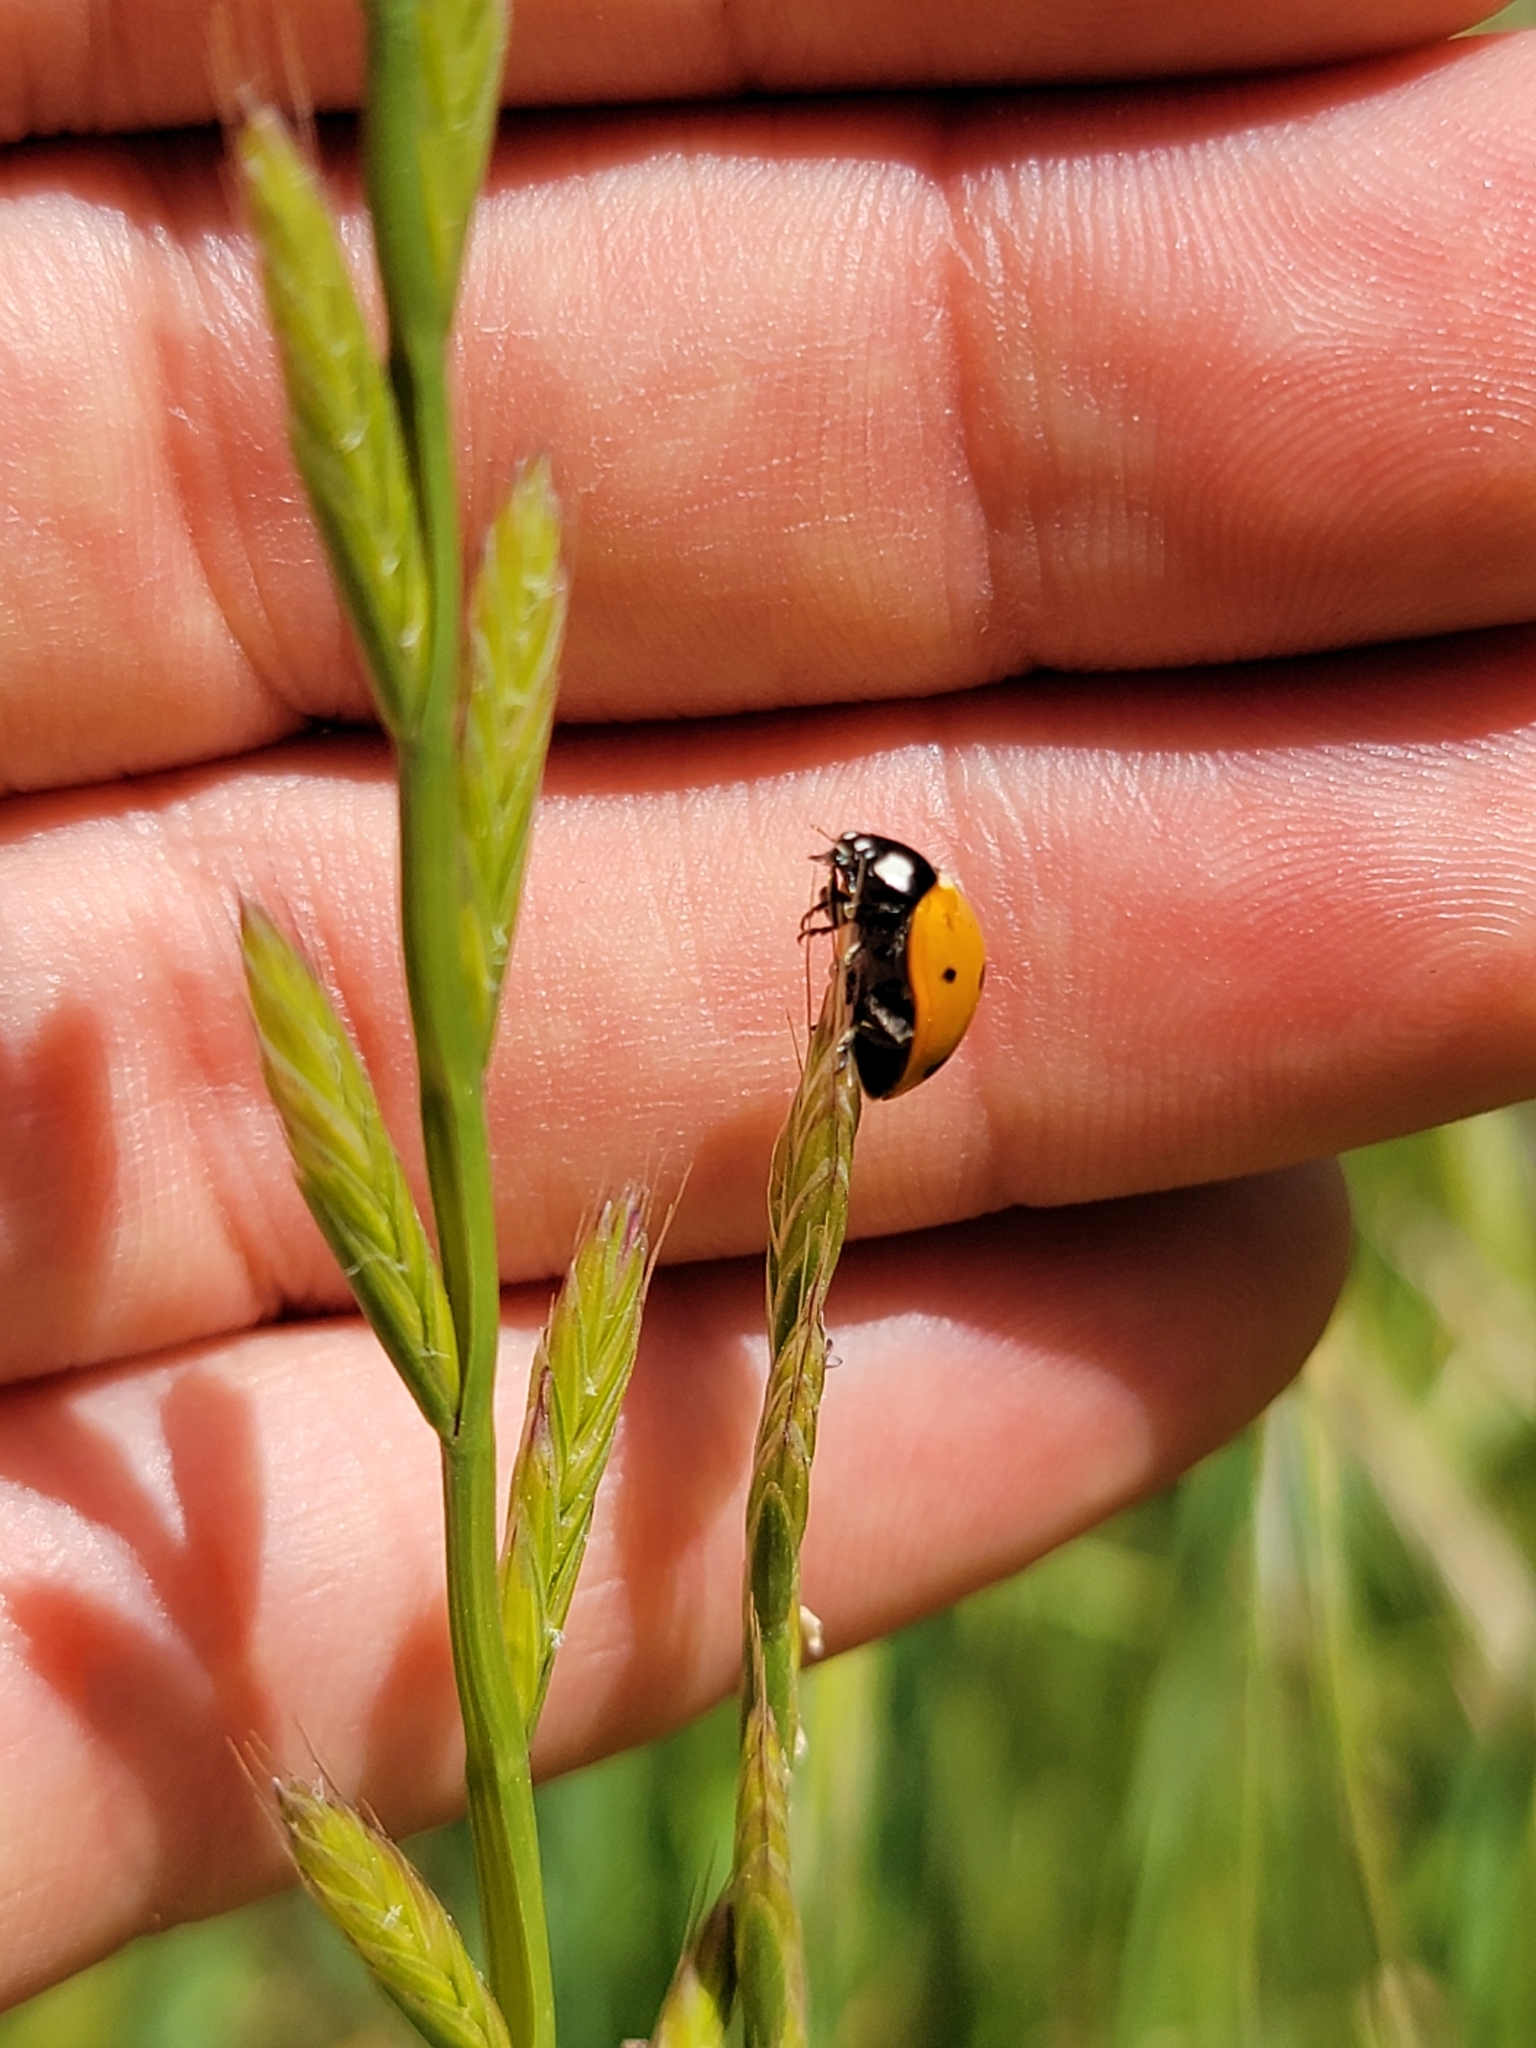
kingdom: Animalia
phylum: Arthropoda
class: Insecta
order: Coleoptera
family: Coccinellidae
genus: Coccinella
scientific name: Coccinella septempunctata
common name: Sevenspotted lady beetle
